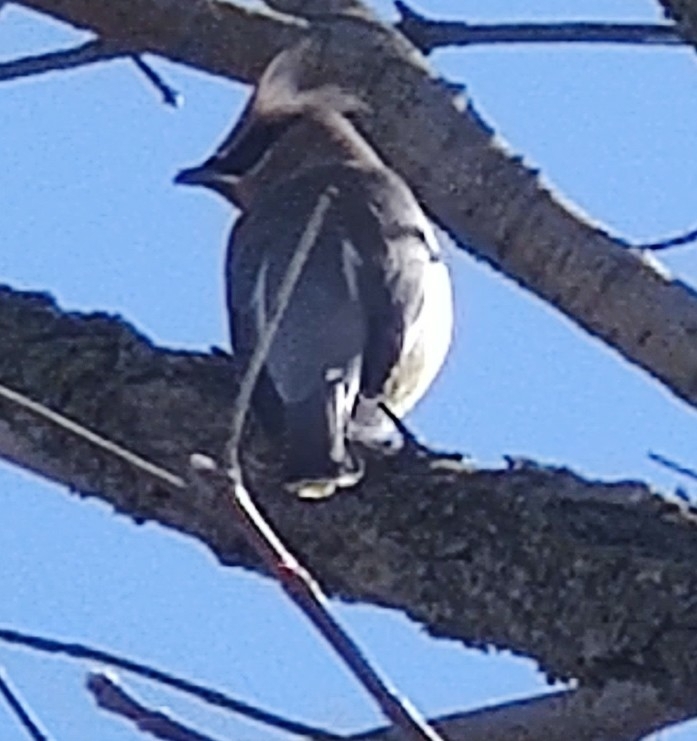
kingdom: Animalia
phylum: Chordata
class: Aves
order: Passeriformes
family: Bombycillidae
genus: Bombycilla
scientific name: Bombycilla cedrorum
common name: Cedar waxwing
